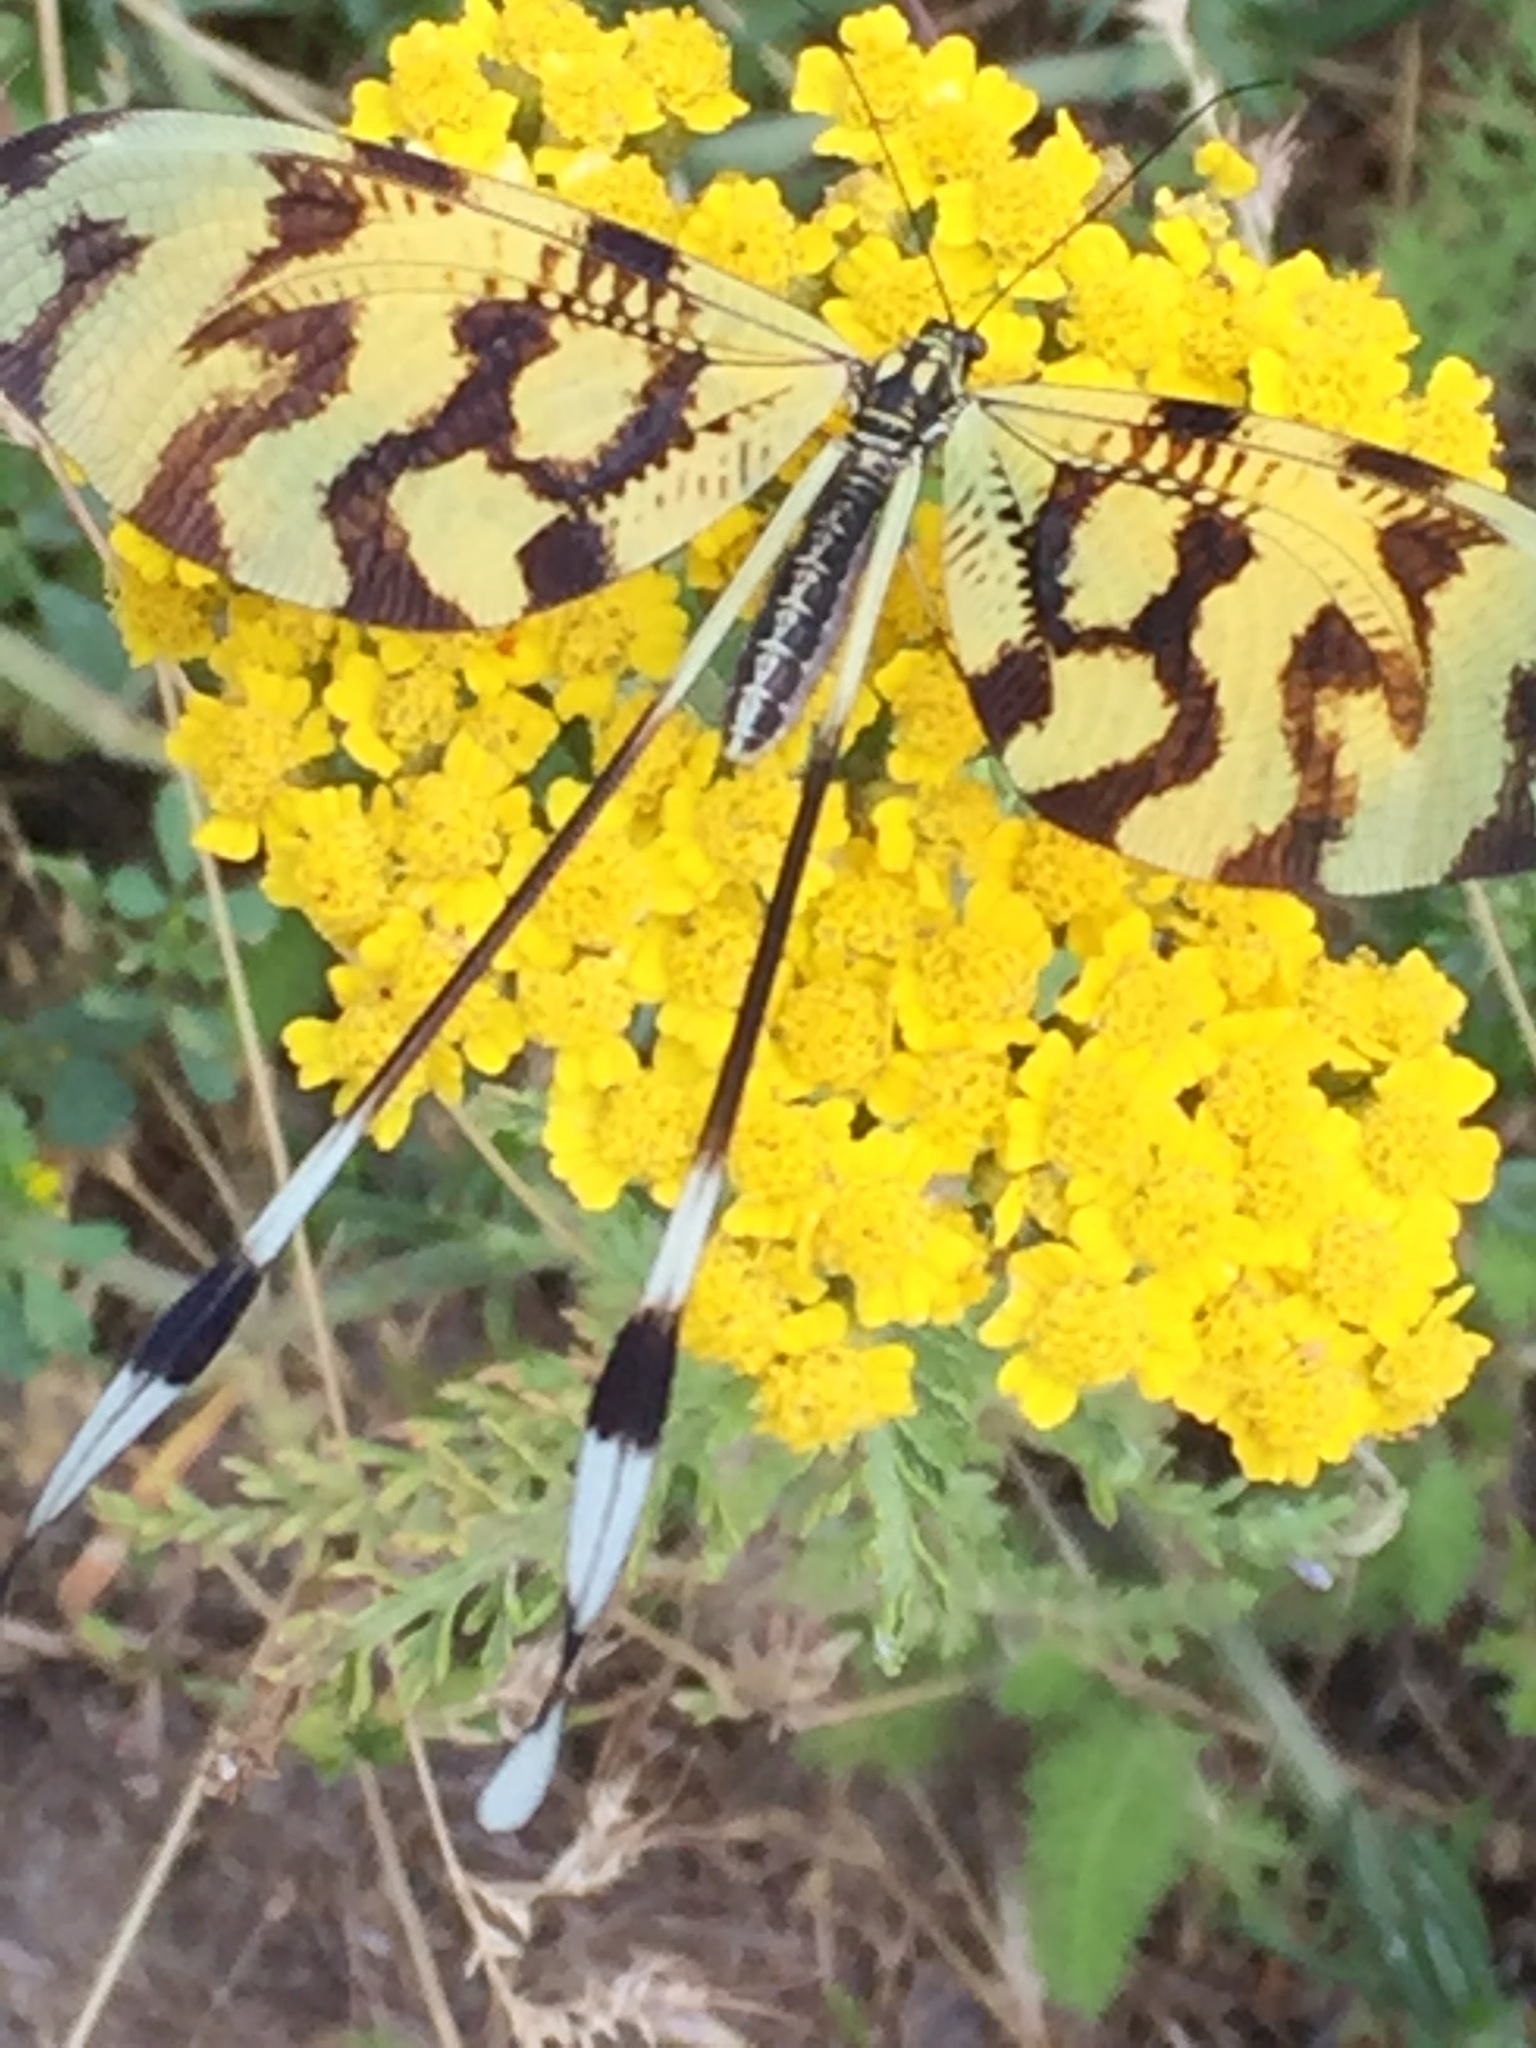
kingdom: Animalia
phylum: Arthropoda
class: Insecta
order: Neuroptera
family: Nemopteridae
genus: Nemoptera
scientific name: Nemoptera sinuata
